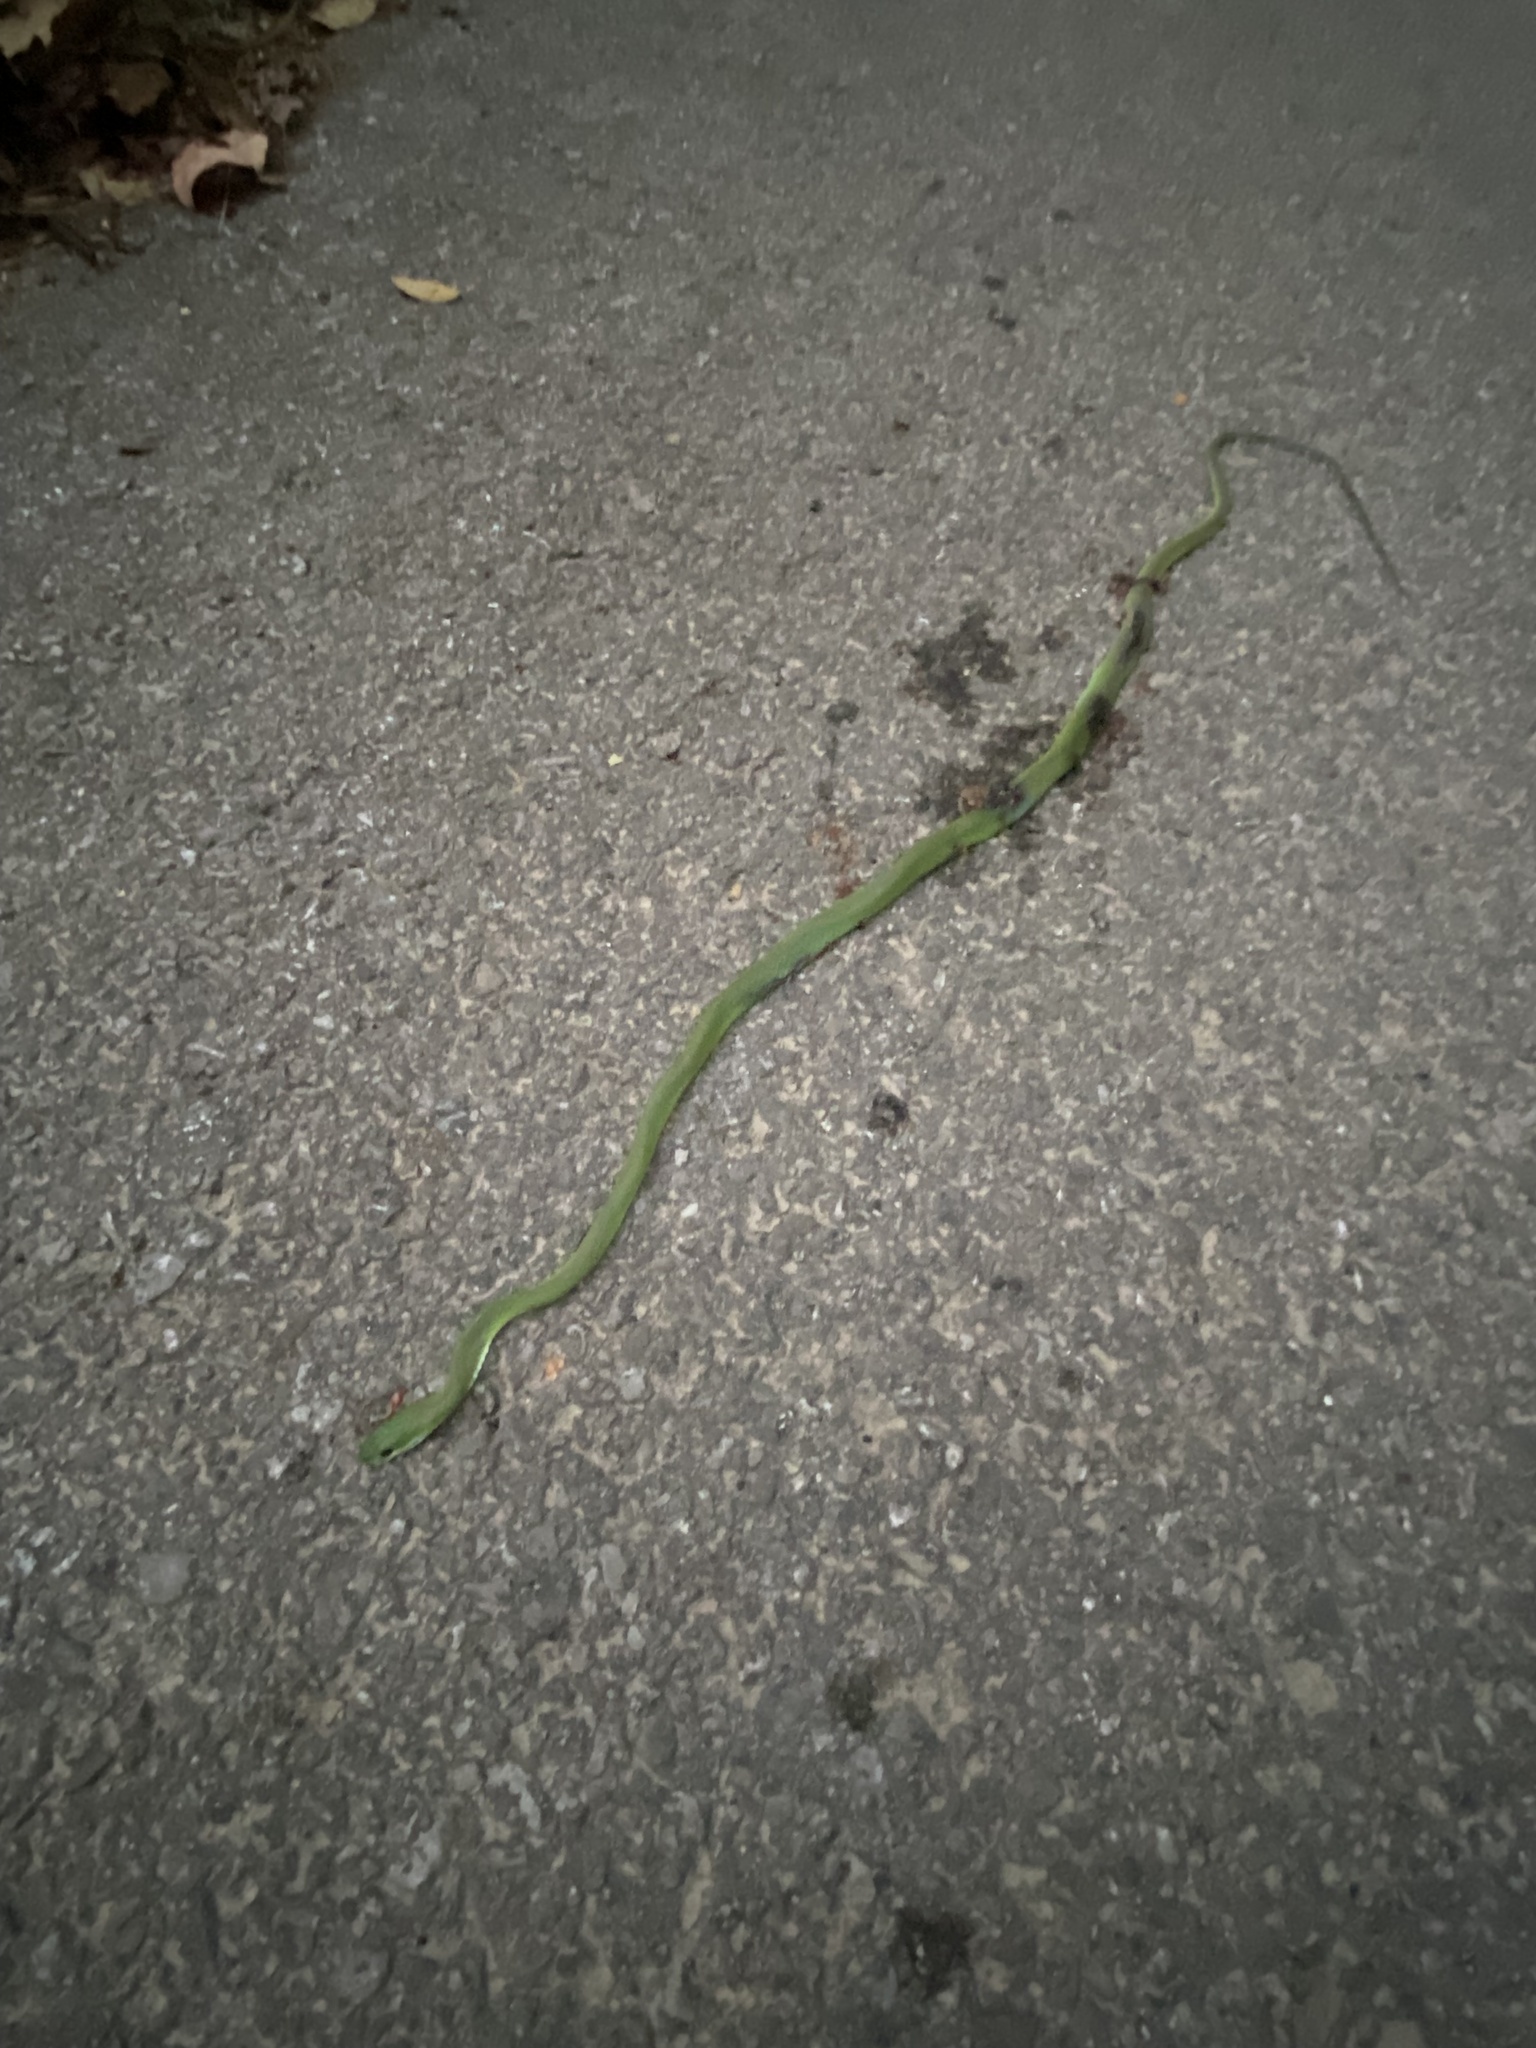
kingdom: Animalia
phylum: Chordata
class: Squamata
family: Colubridae
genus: Opheodrys
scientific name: Opheodrys aestivus
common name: Rough greensnake
